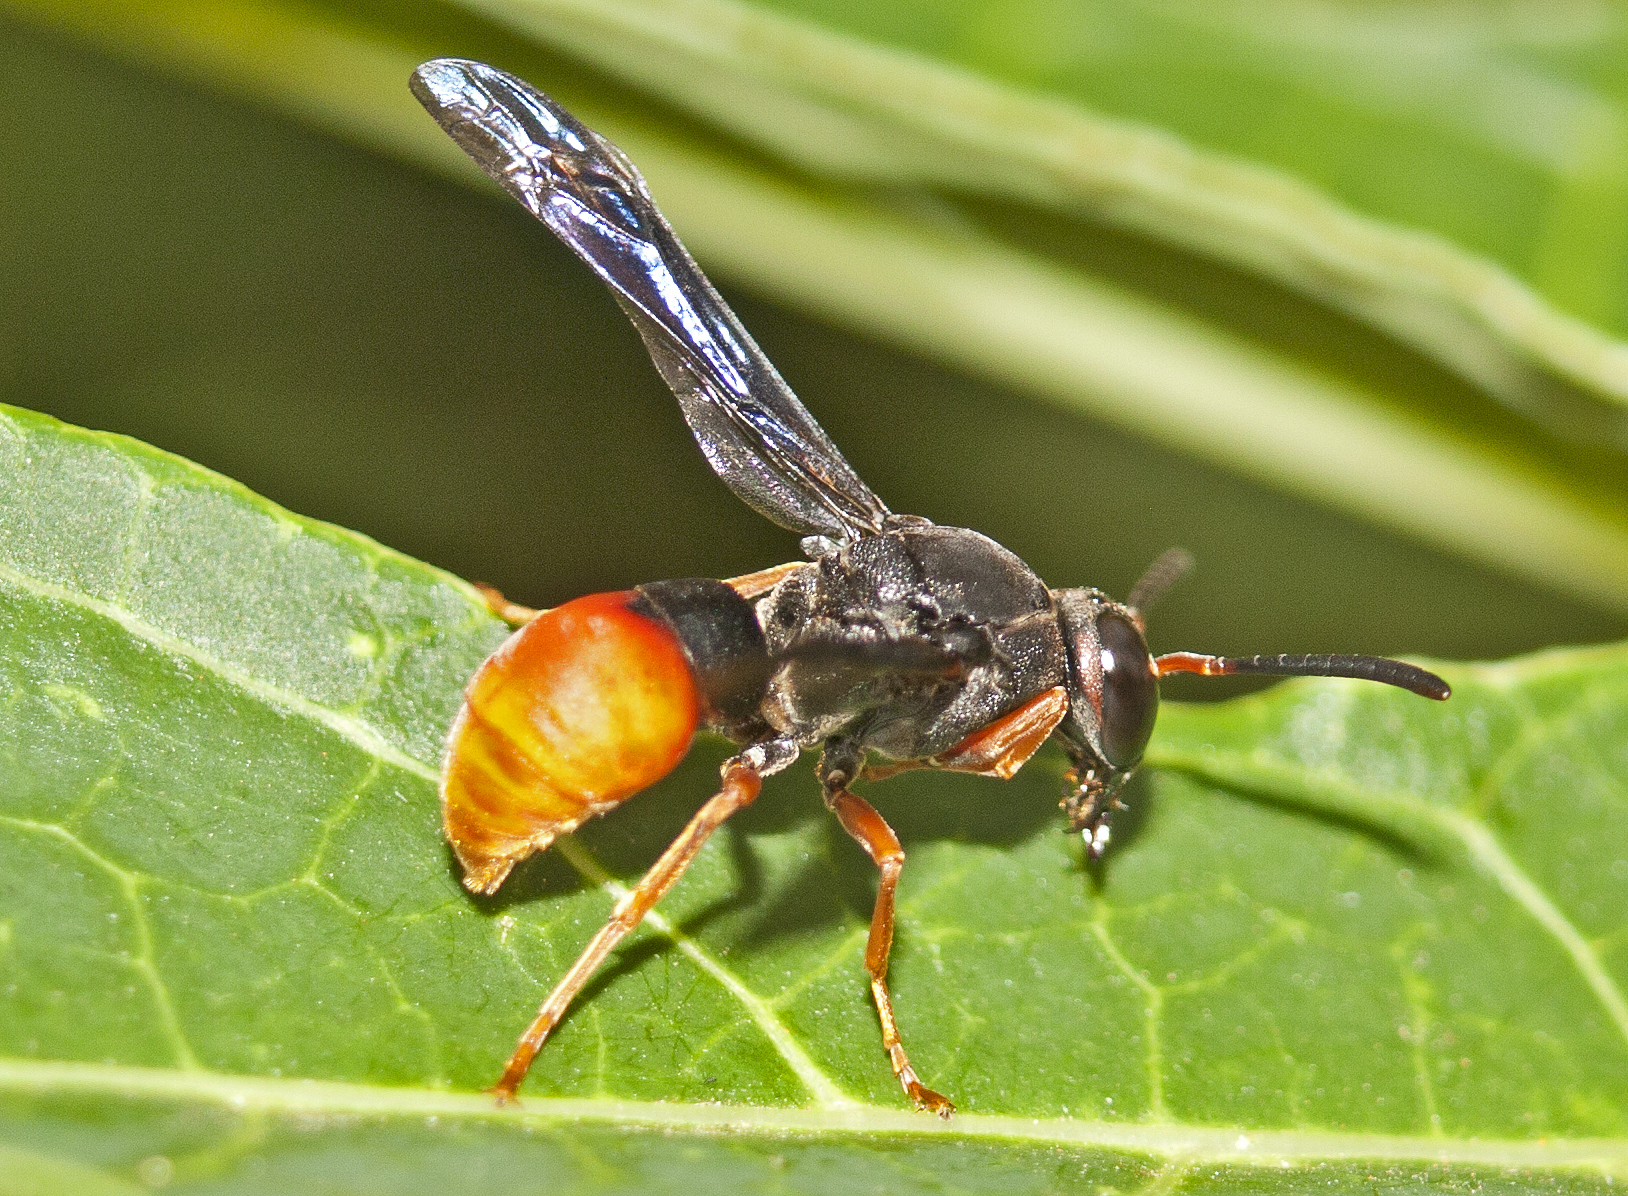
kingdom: Animalia
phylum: Arthropoda
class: Insecta
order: Hymenoptera
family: Eumenidae
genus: Pseudabispa
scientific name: Pseudabispa bicolor
